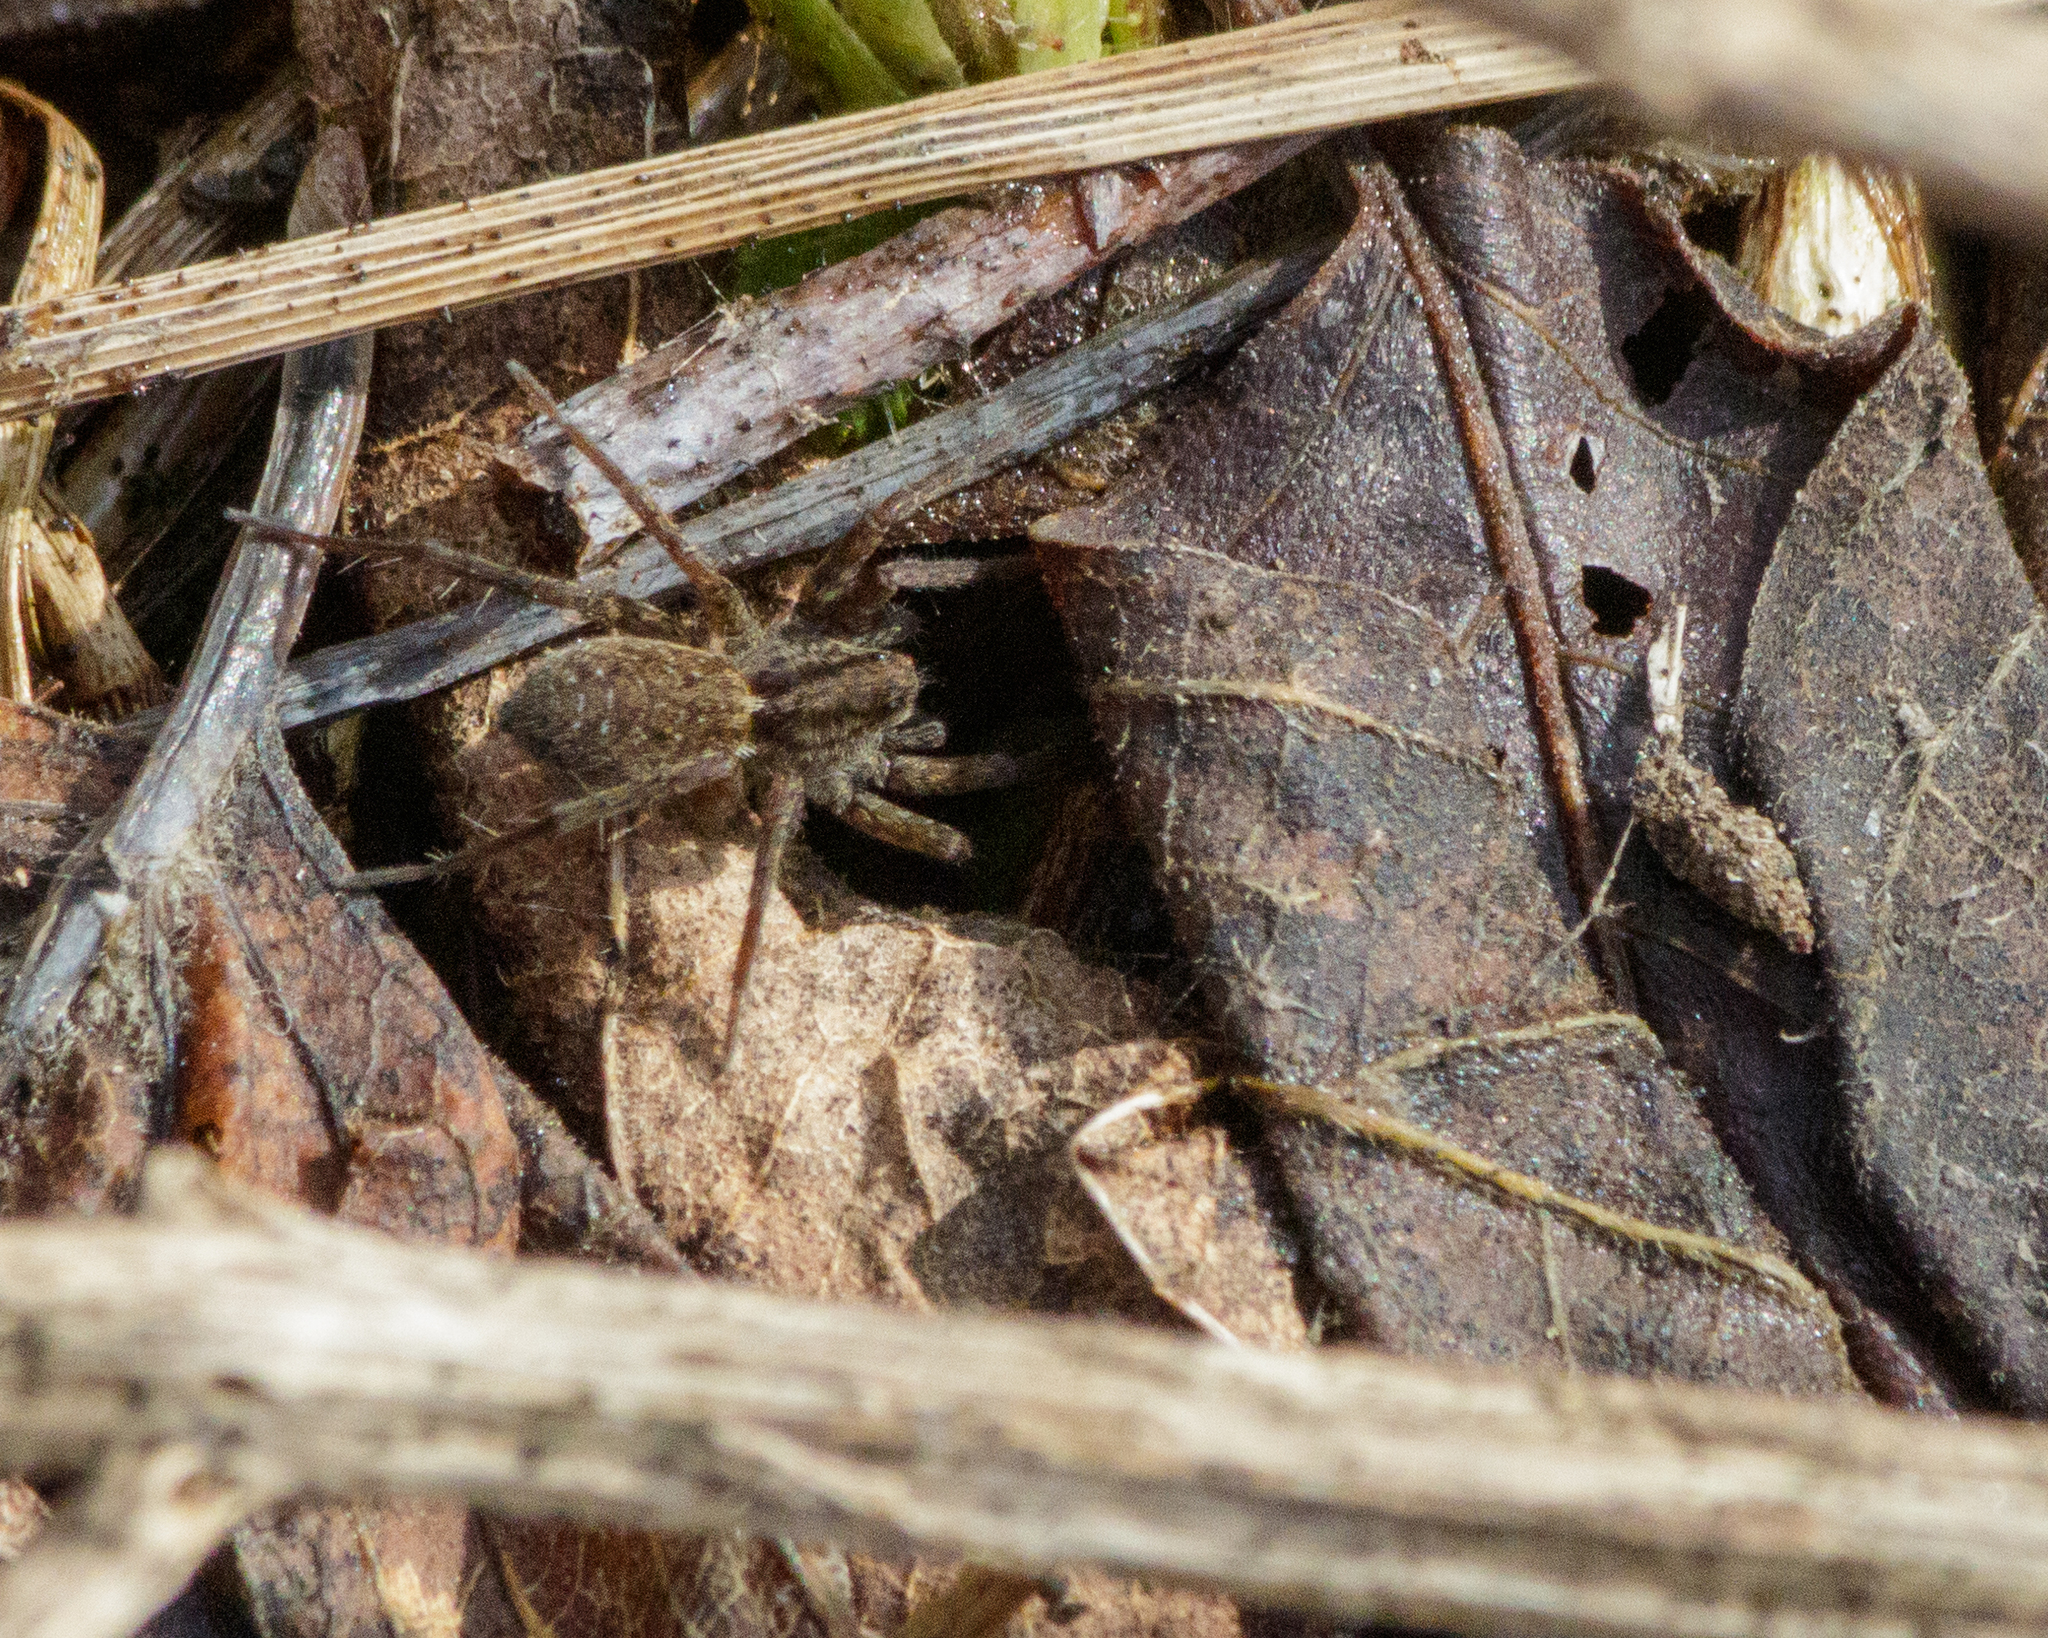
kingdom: Animalia
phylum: Arthropoda
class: Arachnida
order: Araneae
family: Lycosidae
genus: Pardosa
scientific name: Pardosa
